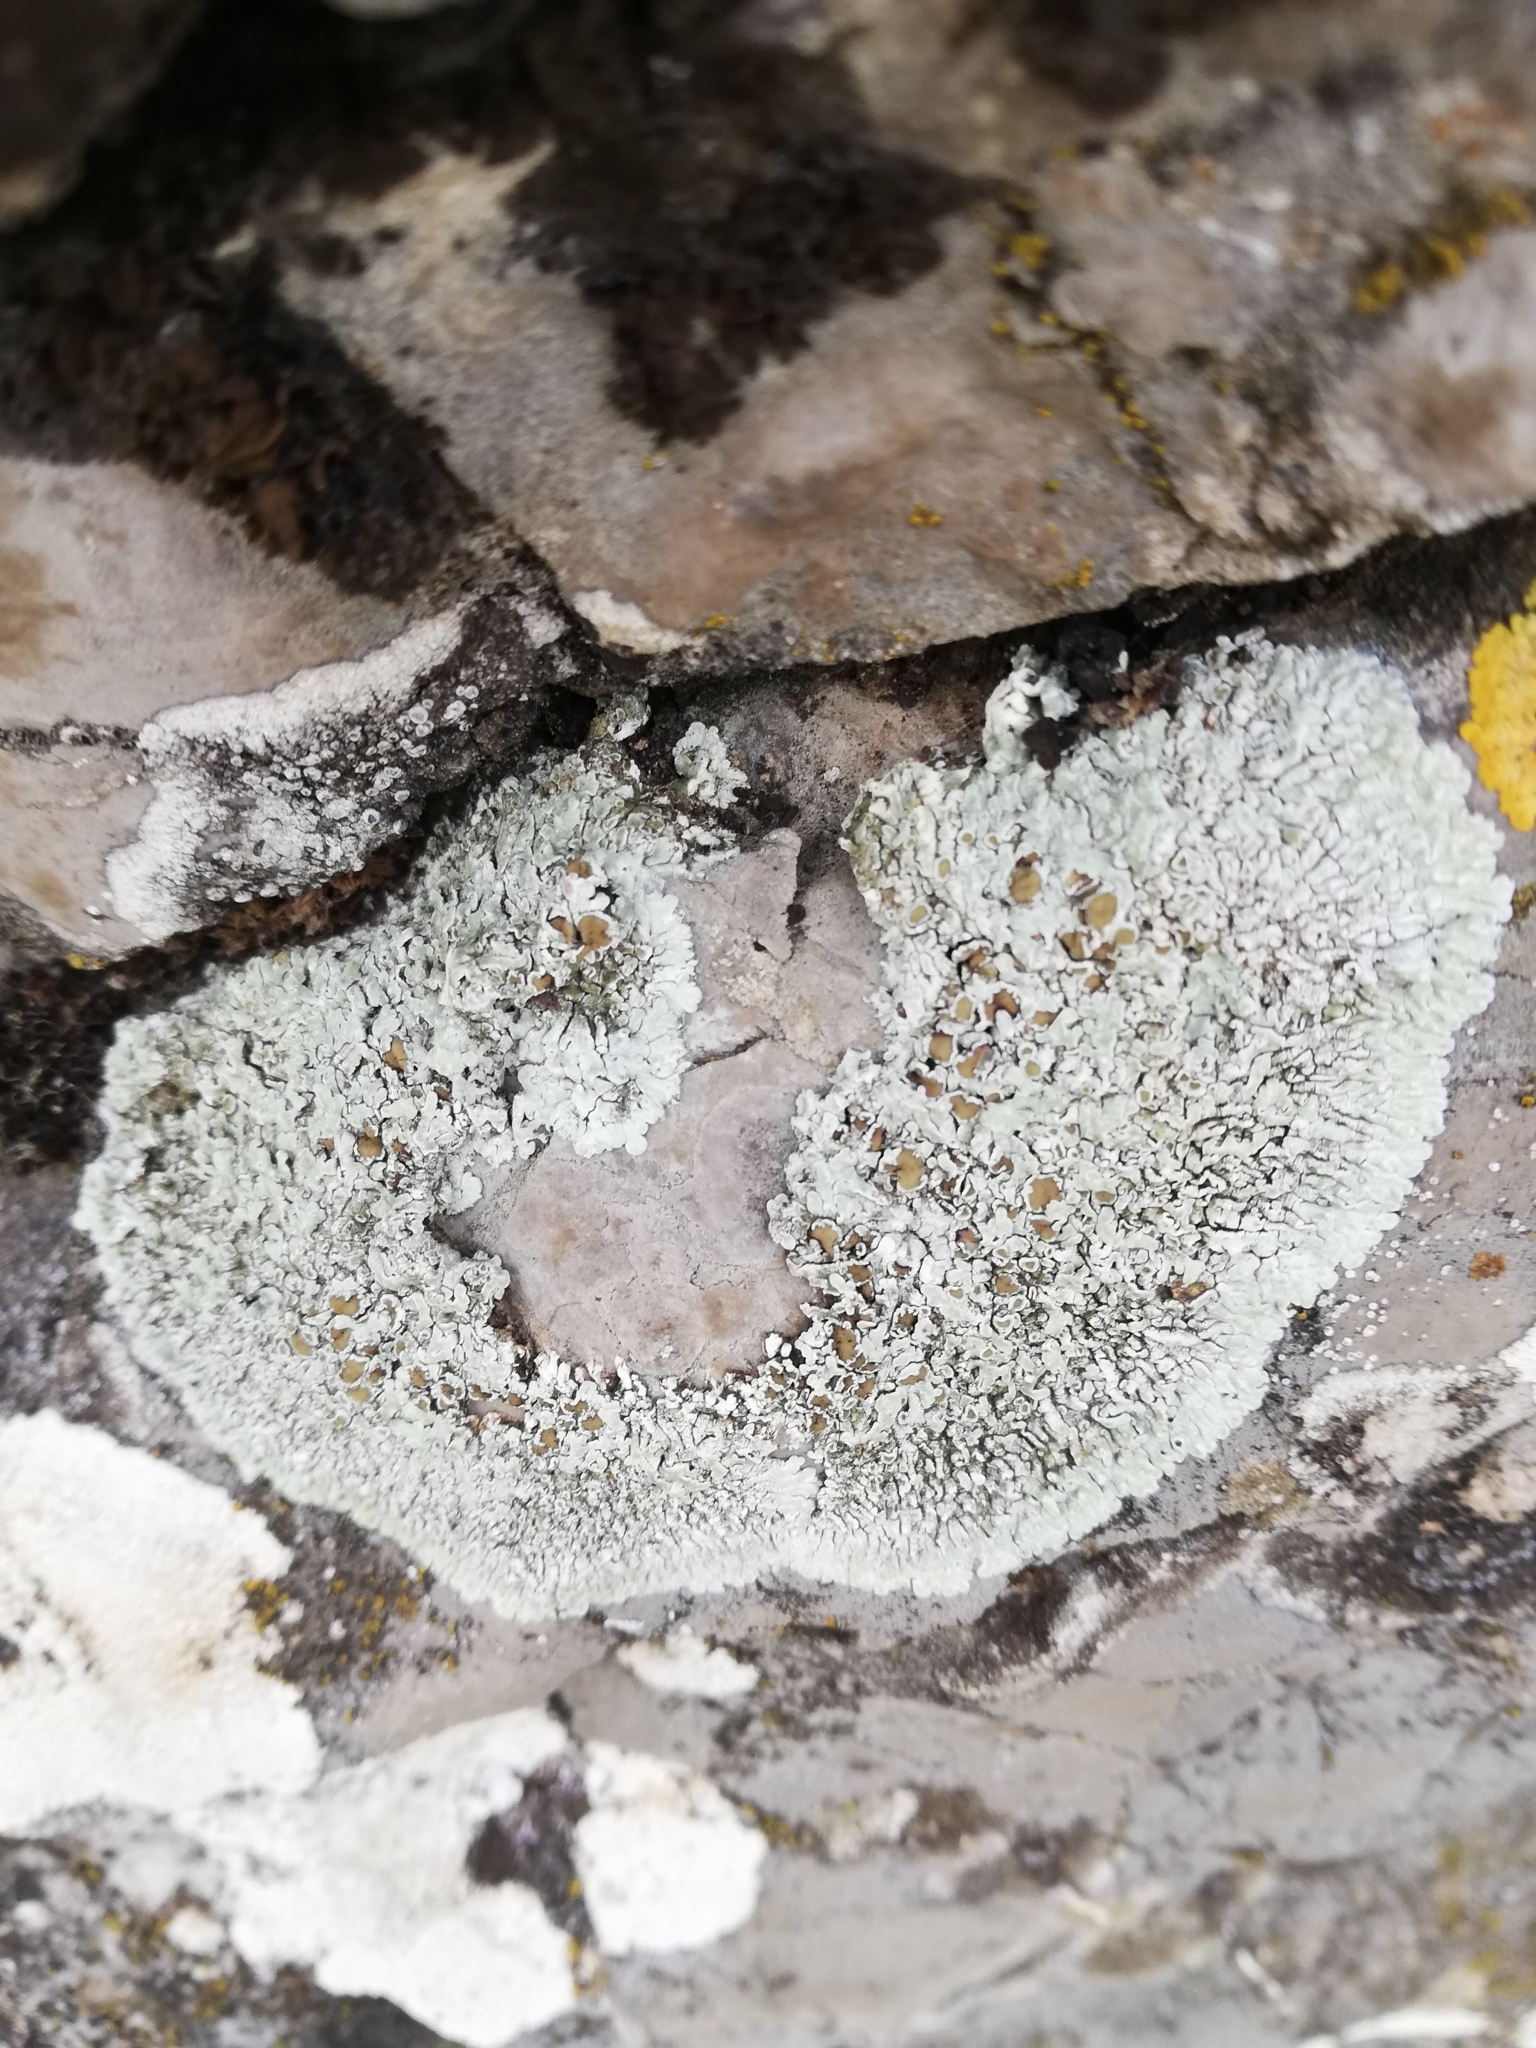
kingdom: Fungi
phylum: Ascomycota
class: Lecanoromycetes
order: Lecanorales
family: Lecanoraceae
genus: Protoparmeliopsis
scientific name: Protoparmeliopsis muralis
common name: Stonewall rim lichen
